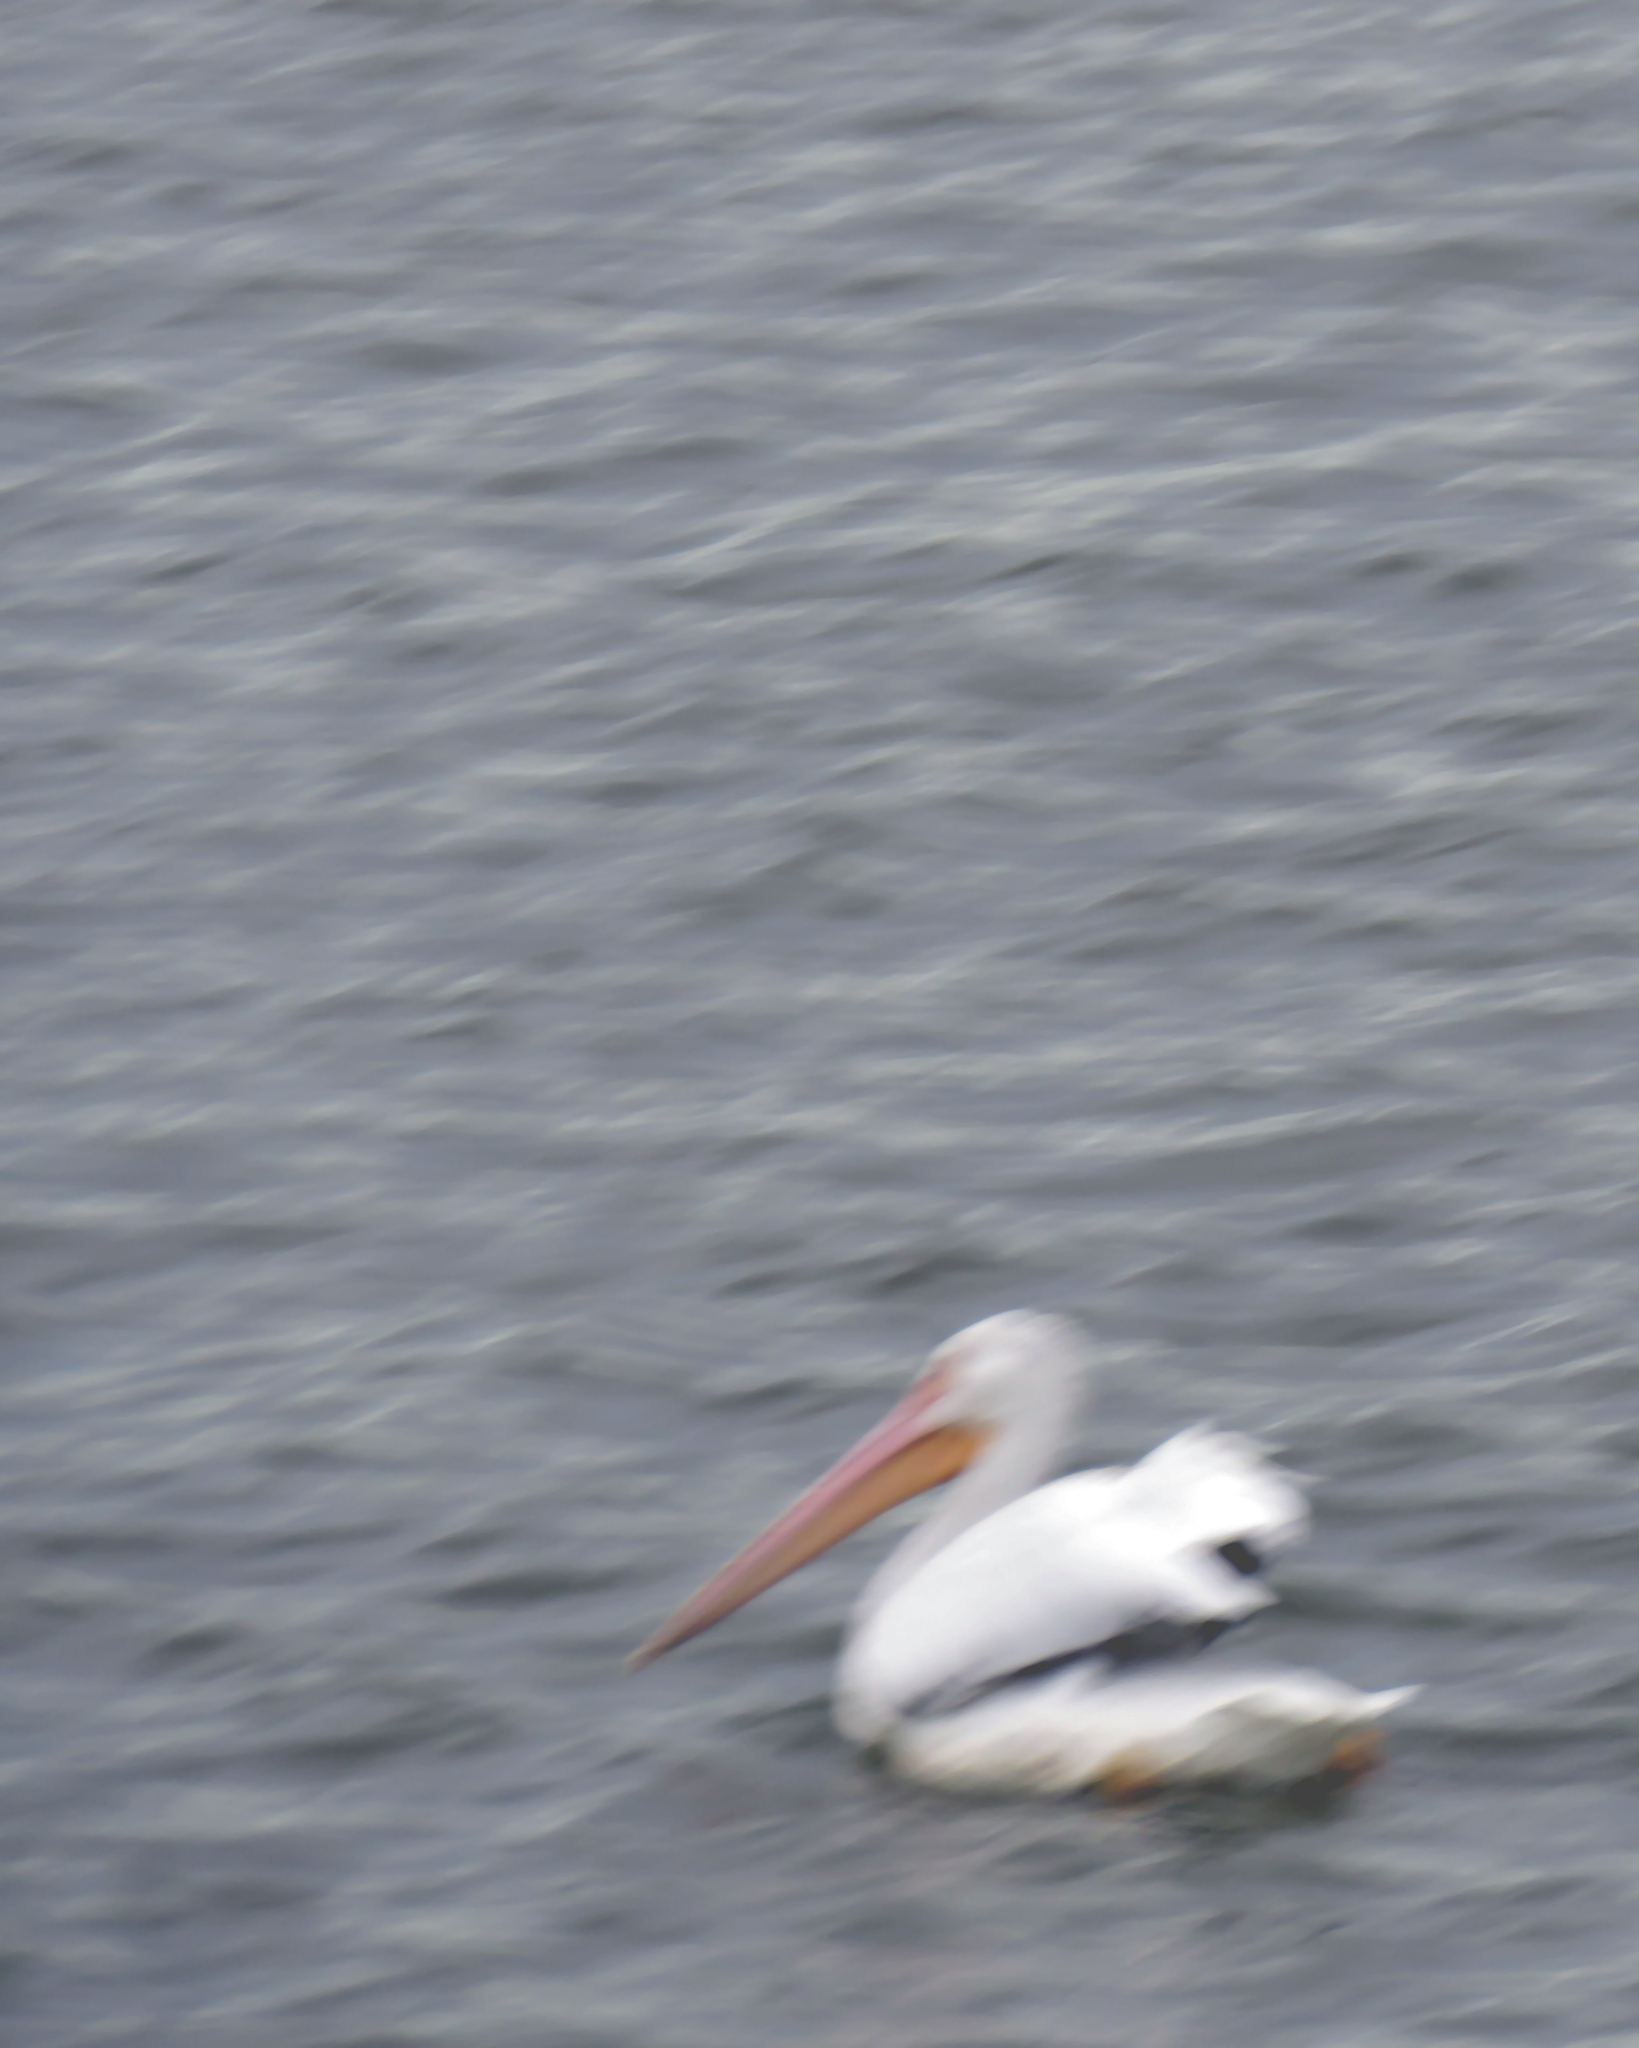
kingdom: Animalia
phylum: Chordata
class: Aves
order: Pelecaniformes
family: Pelecanidae
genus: Pelecanus
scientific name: Pelecanus erythrorhynchos
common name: American white pelican
